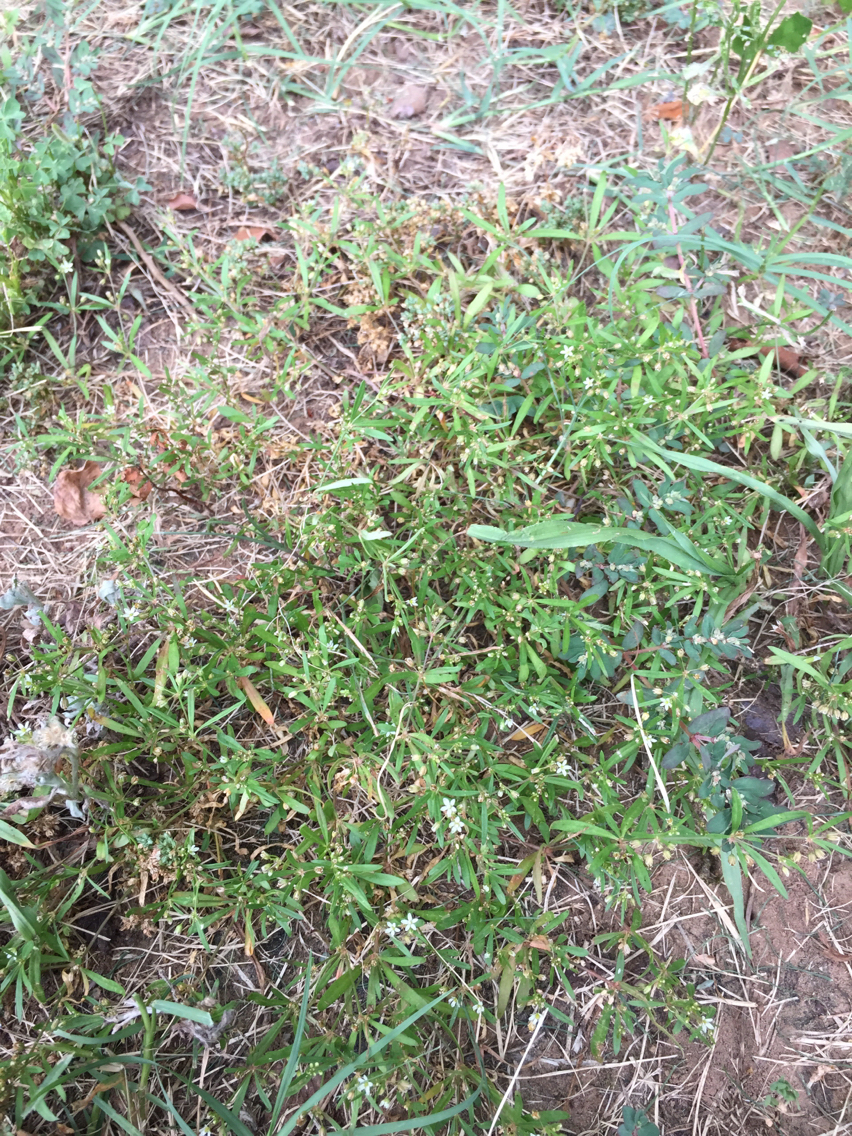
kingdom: Plantae
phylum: Tracheophyta
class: Magnoliopsida
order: Caryophyllales
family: Molluginaceae
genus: Mollugo
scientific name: Mollugo verticillata
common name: Green carpetweed
